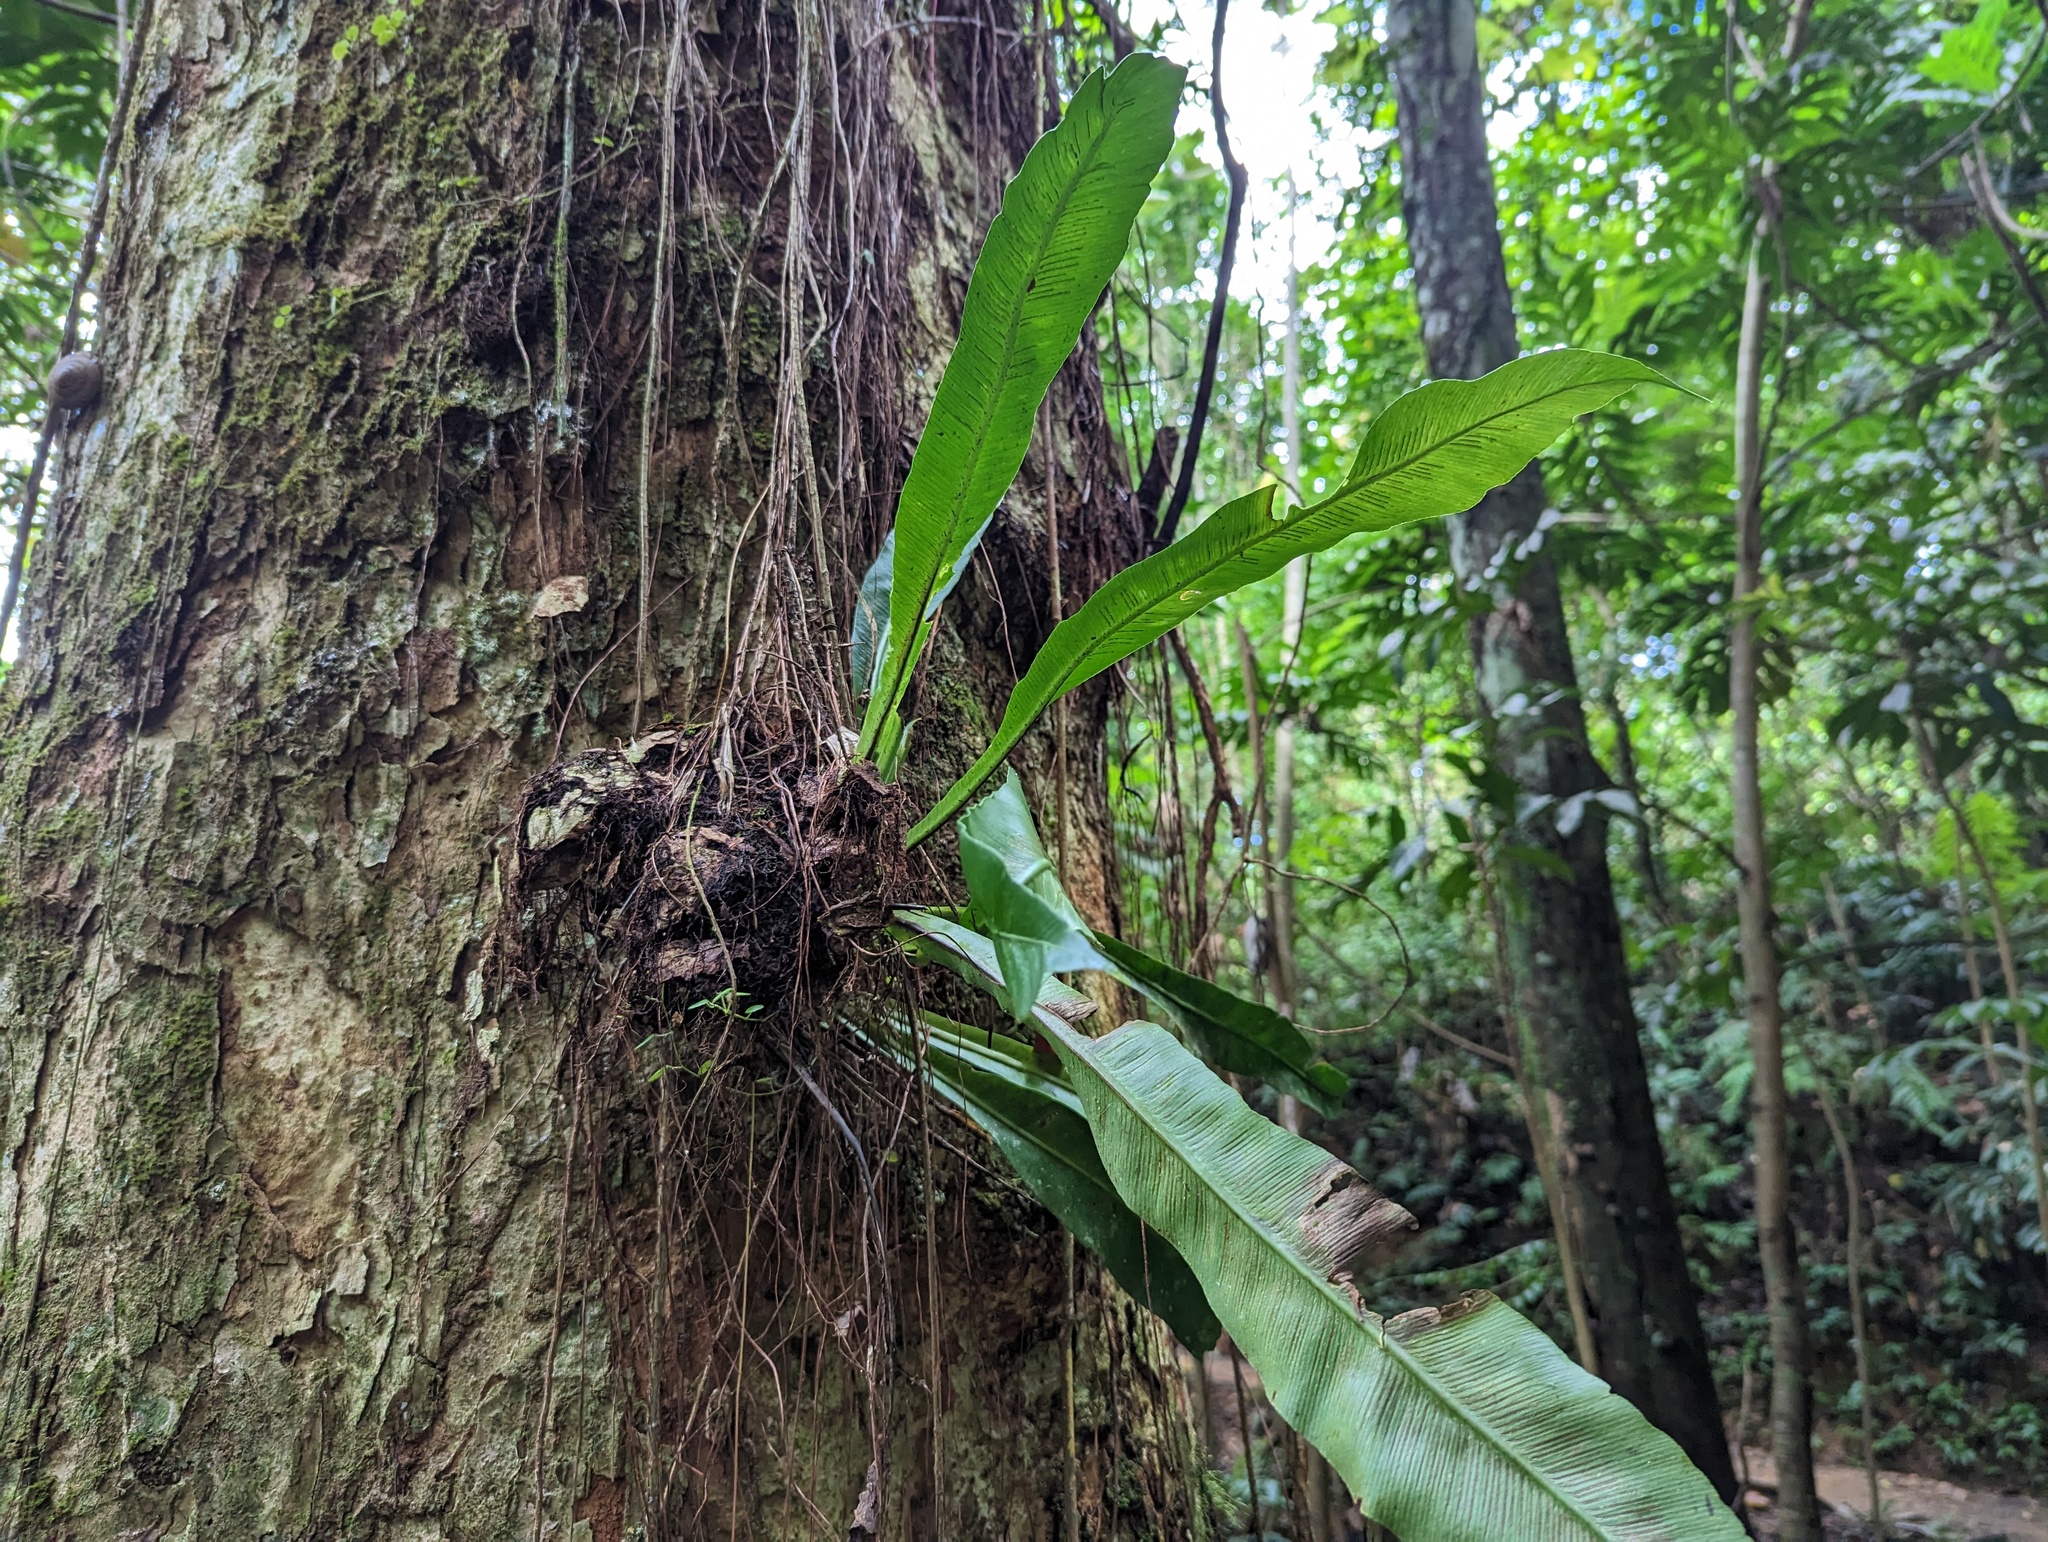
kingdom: Plantae
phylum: Tracheophyta
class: Polypodiopsida
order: Polypodiales
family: Aspleniaceae
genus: Asplenium
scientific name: Asplenium serratum
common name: Wild birdnest fern
